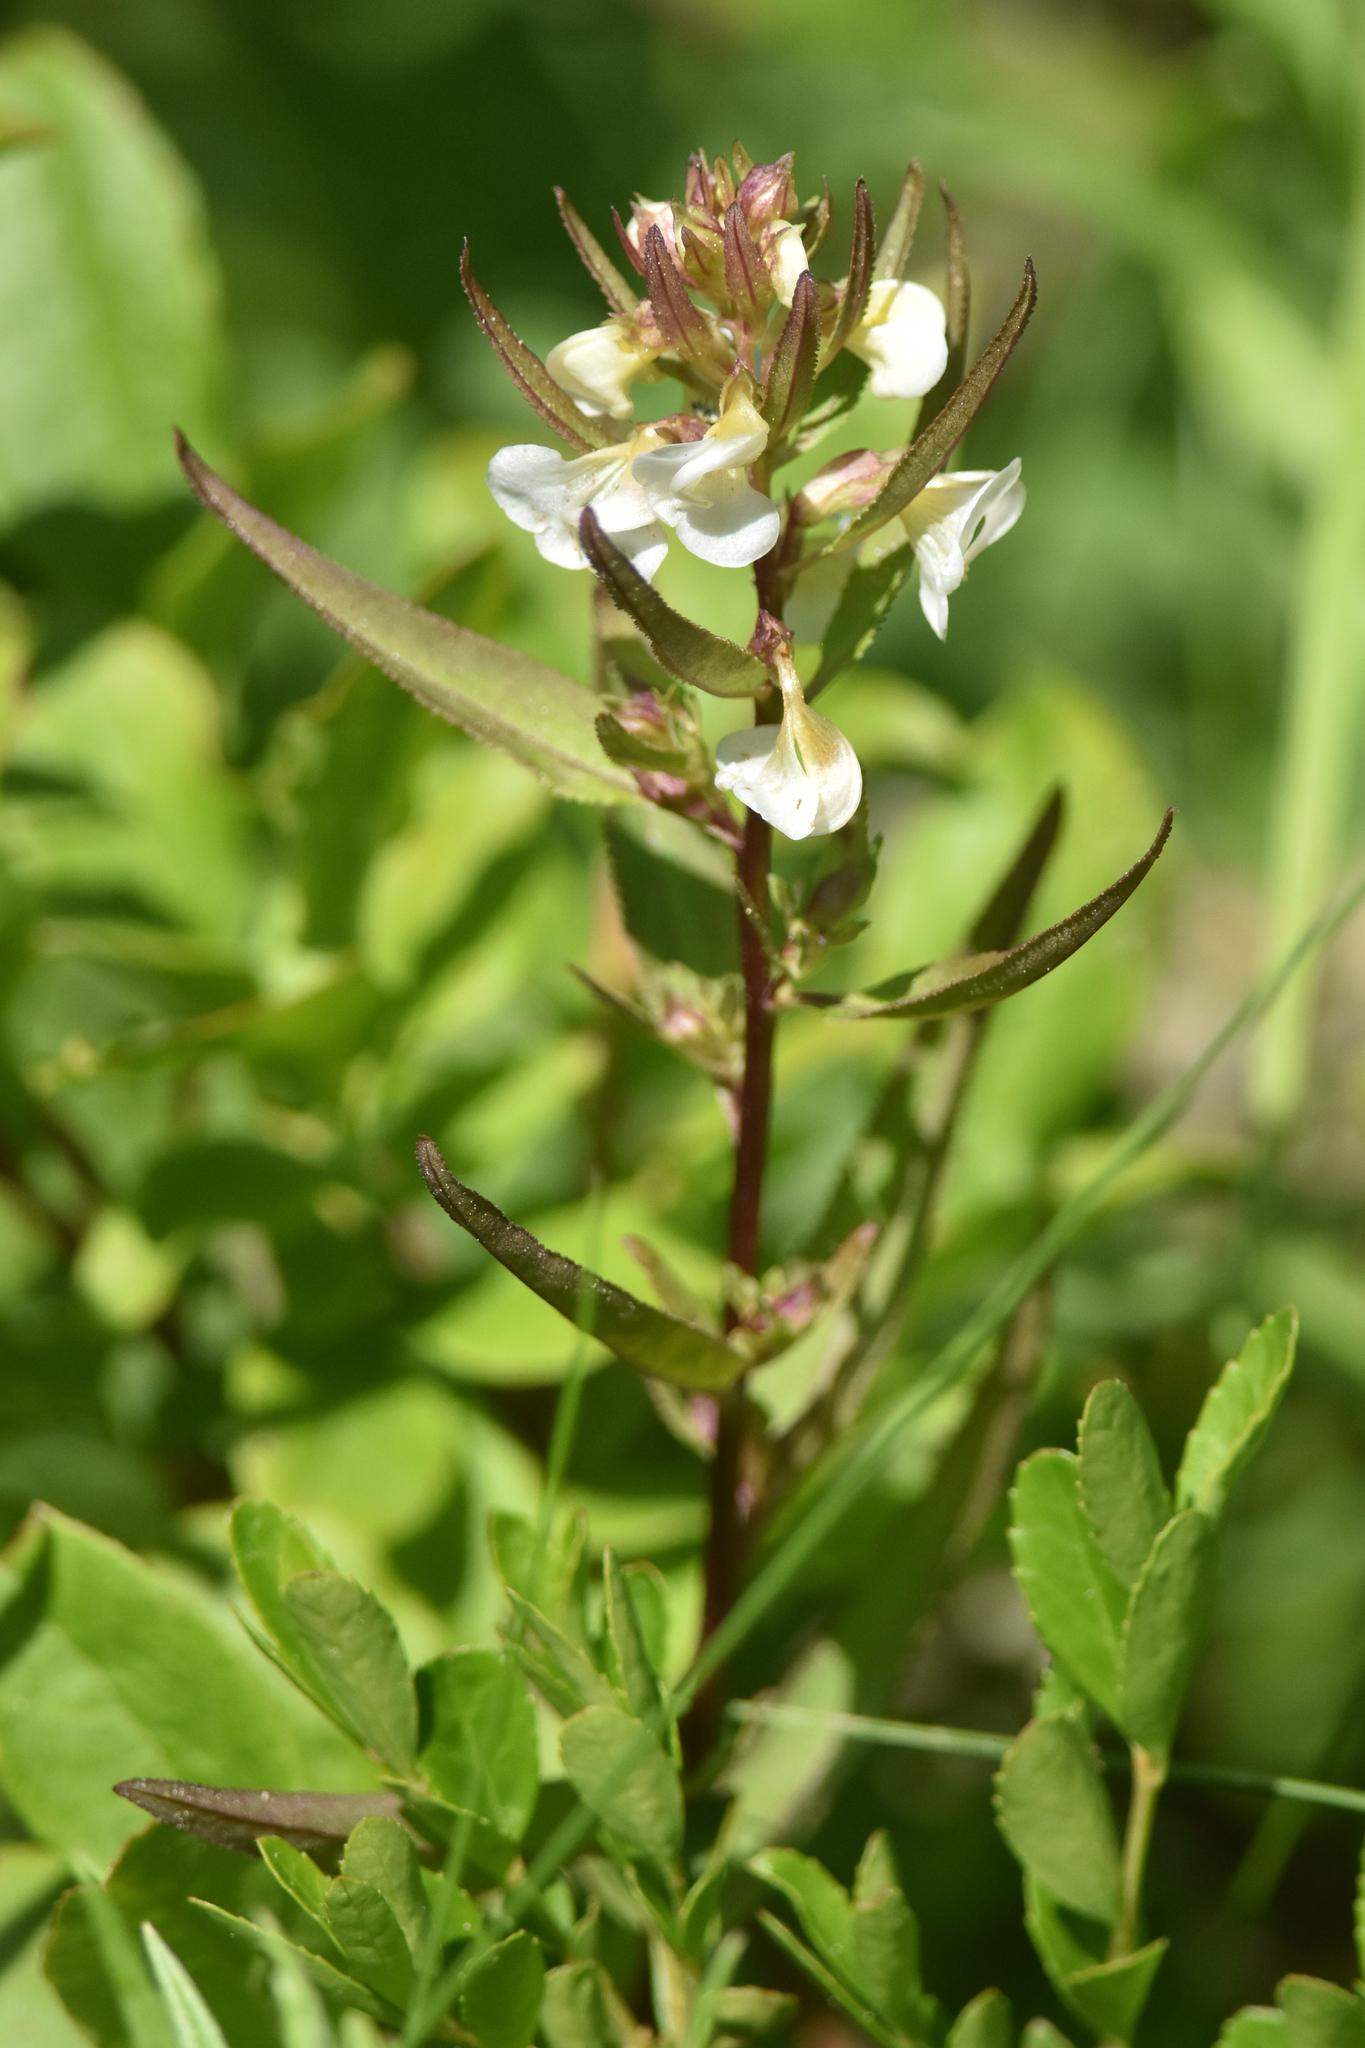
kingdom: Plantae
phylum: Tracheophyta
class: Magnoliopsida
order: Lamiales
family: Orobanchaceae
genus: Pedicularis
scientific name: Pedicularis racemosa
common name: Leafy lousewort
